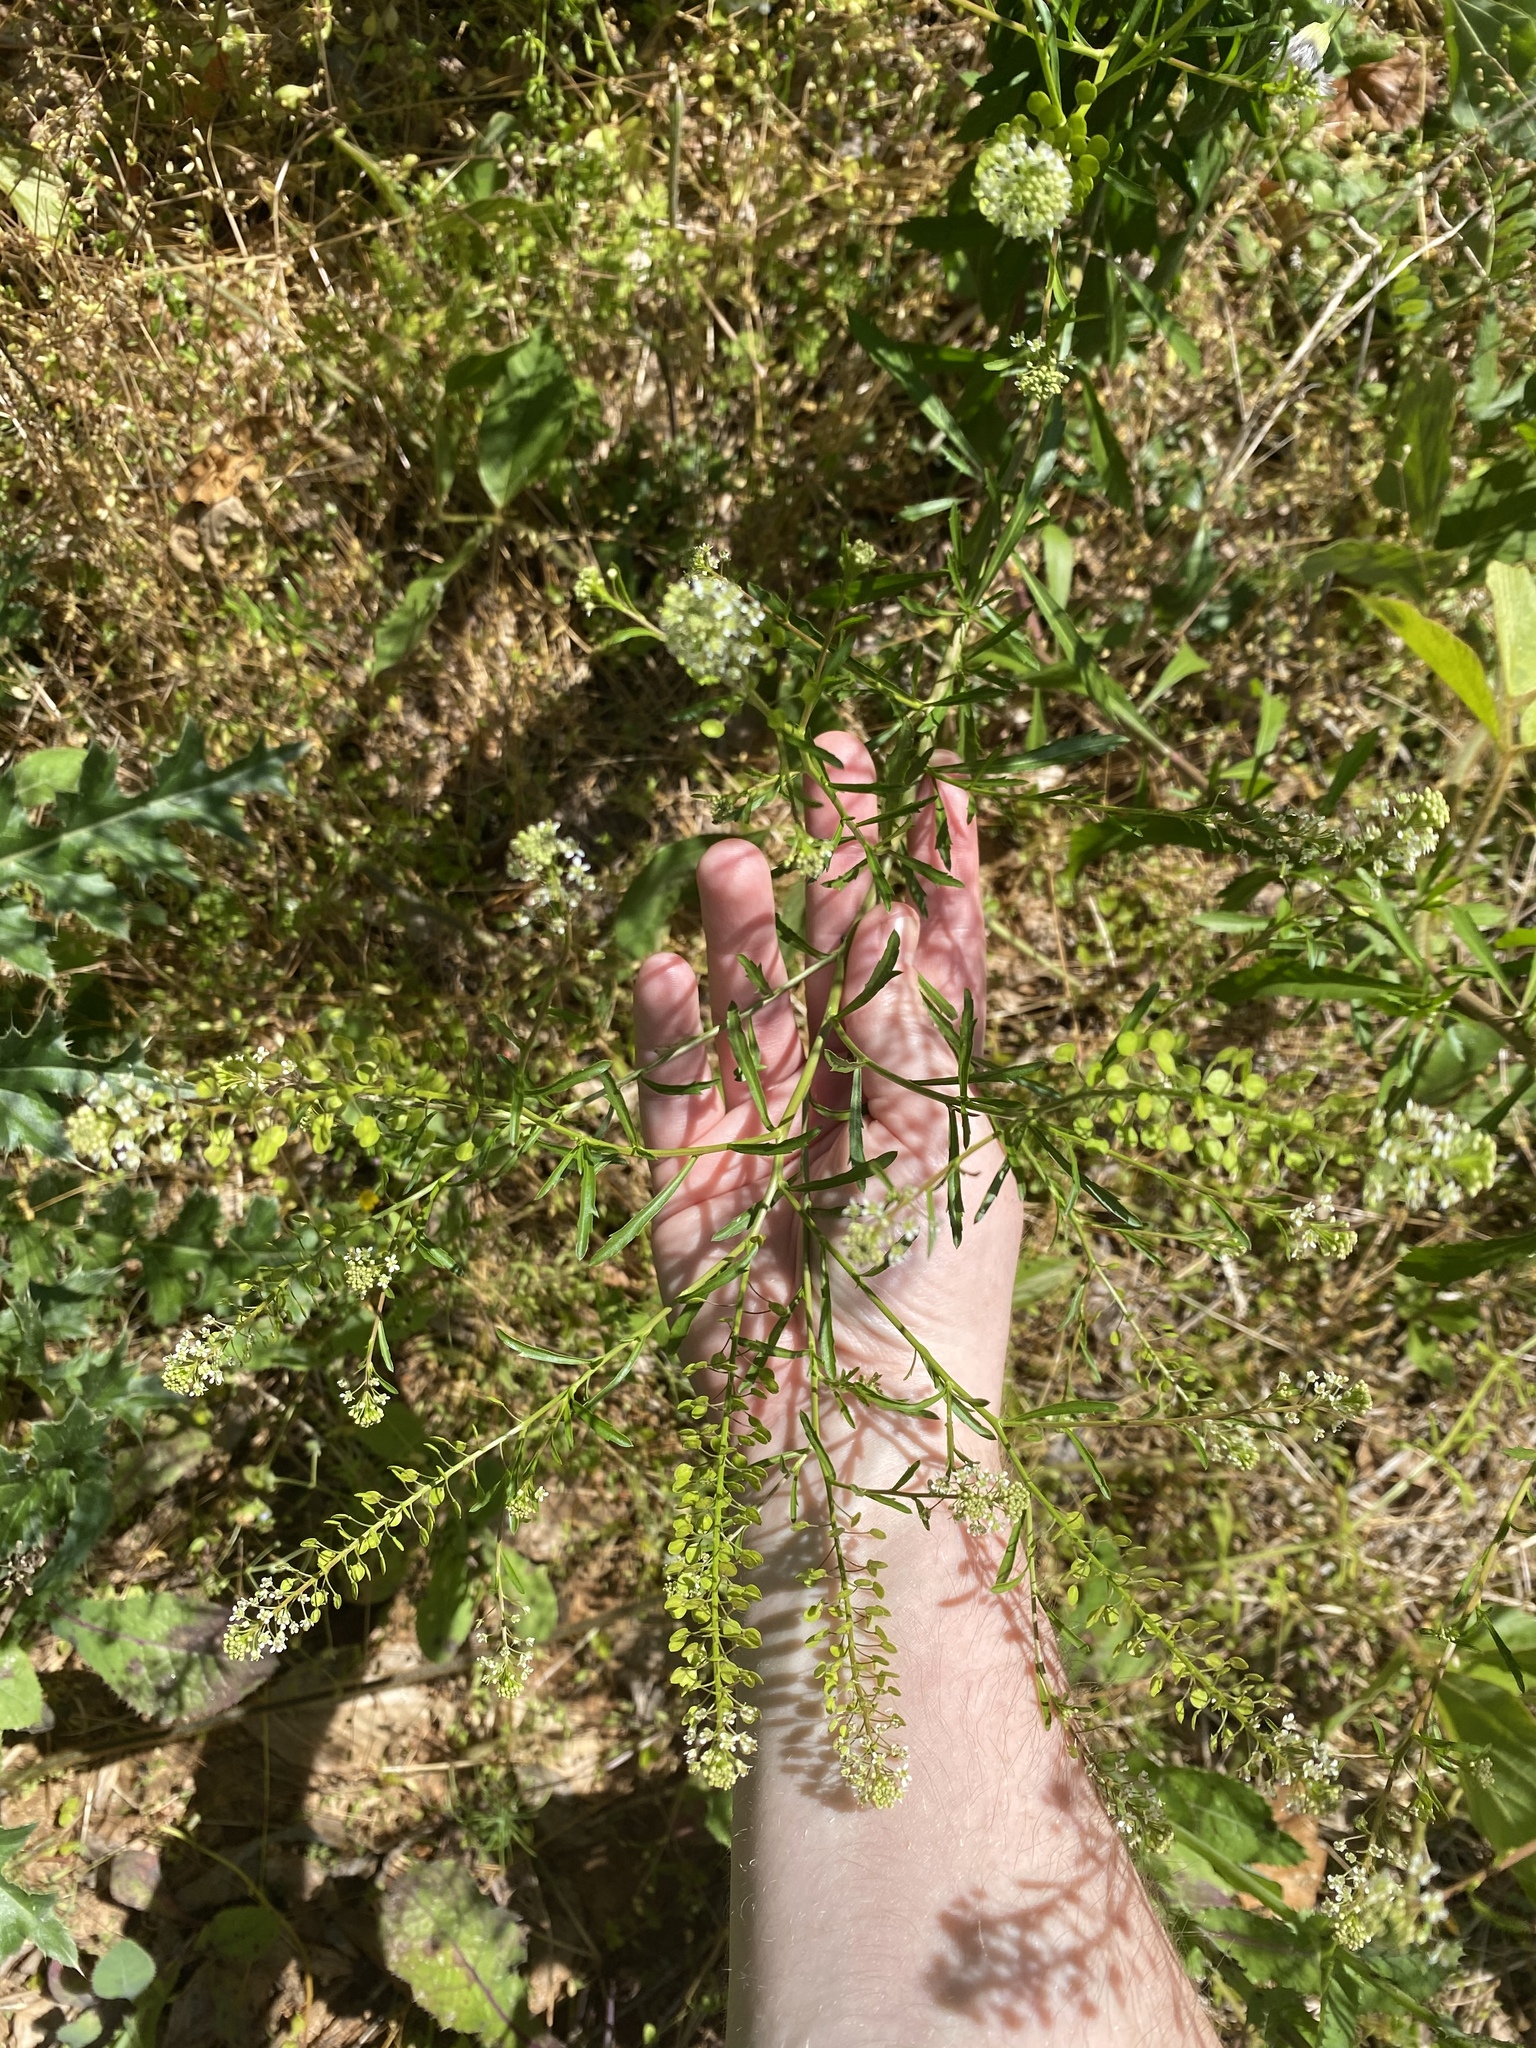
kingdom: Plantae
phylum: Tracheophyta
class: Magnoliopsida
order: Brassicales
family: Brassicaceae
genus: Lepidium
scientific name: Lepidium virginicum
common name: Least pepperwort
